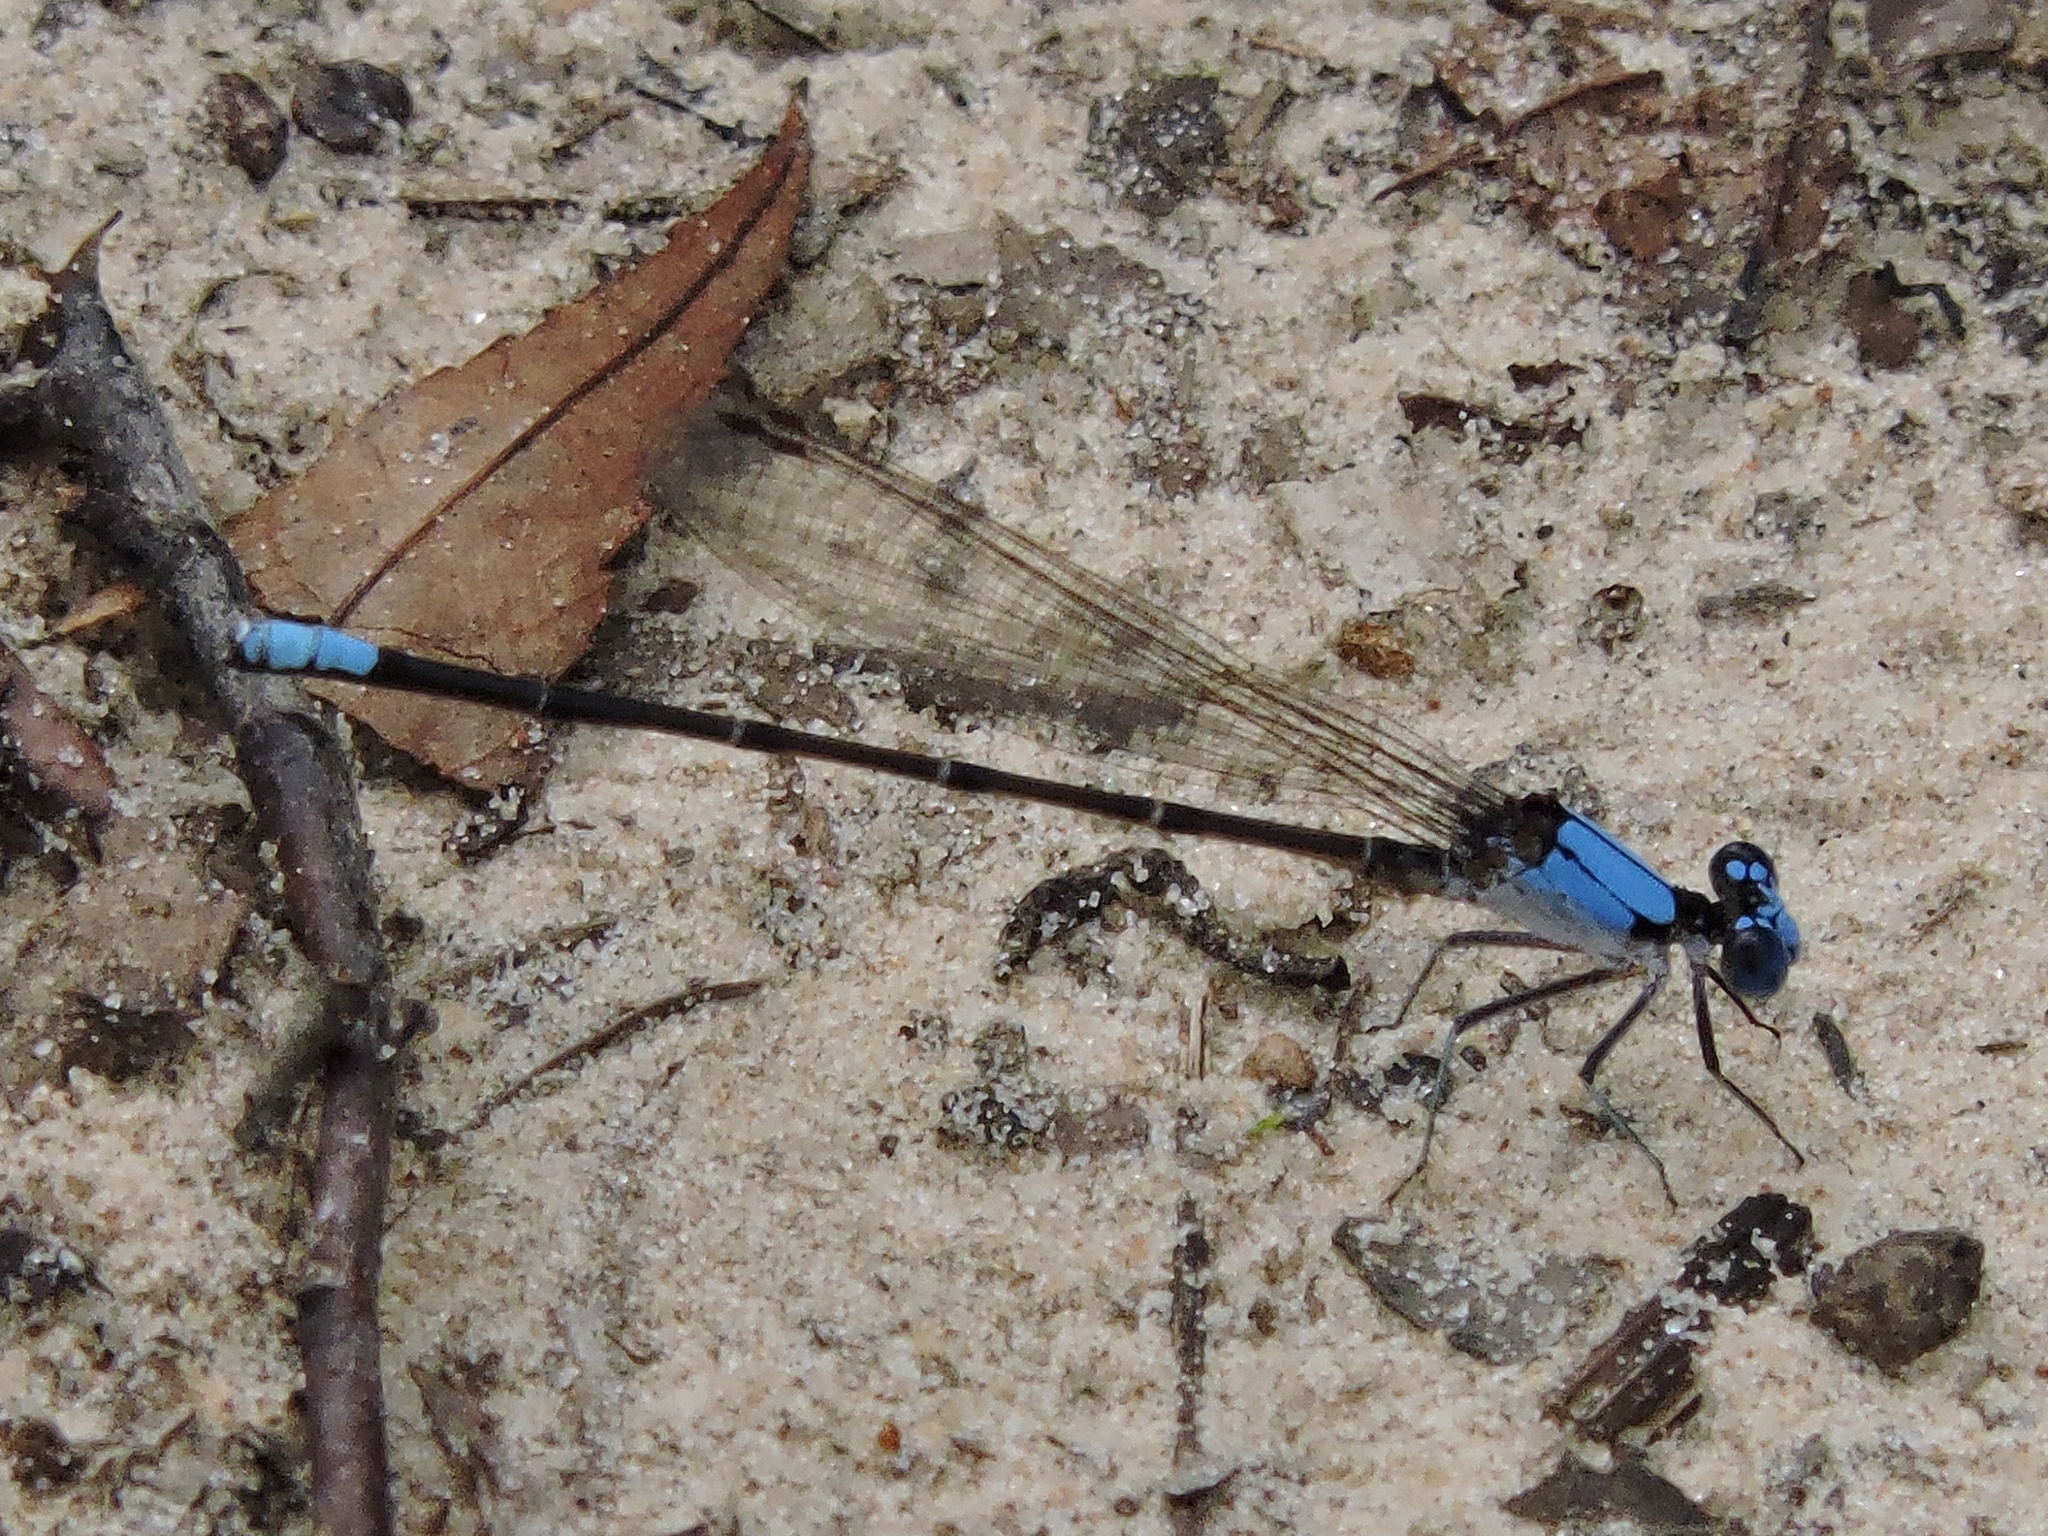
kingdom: Animalia
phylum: Arthropoda
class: Insecta
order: Odonata
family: Coenagrionidae
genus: Argia
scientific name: Argia apicalis
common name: Blue-fronted dancer
